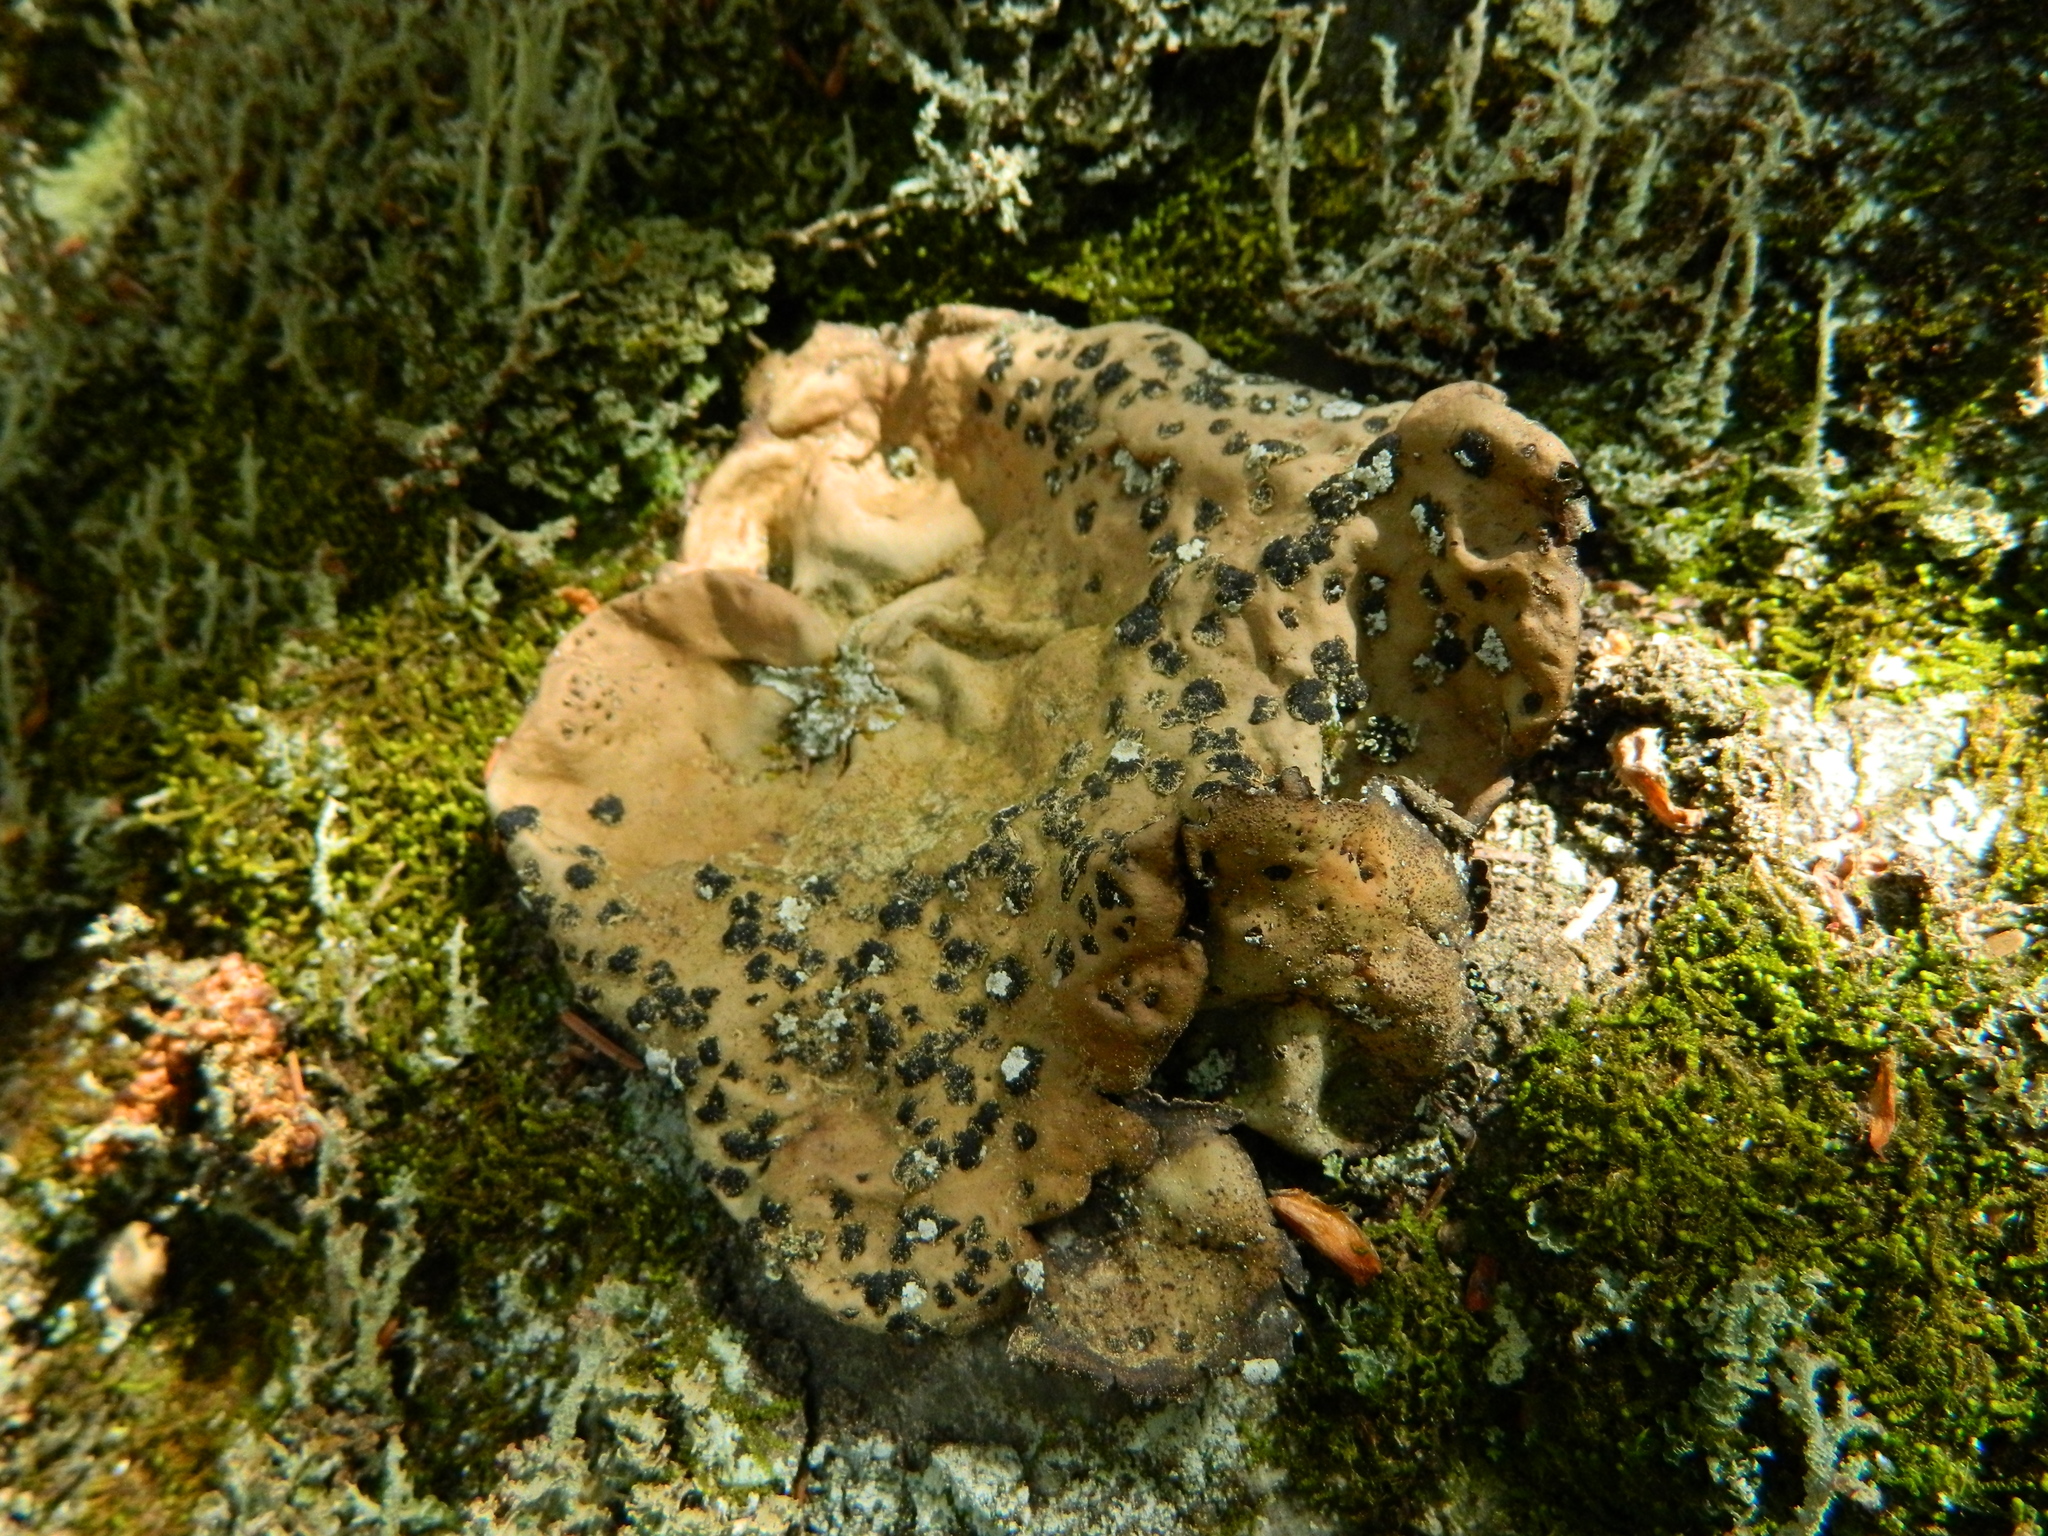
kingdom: Fungi
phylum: Ascomycota
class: Lecanoromycetes
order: Umbilicariales
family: Umbilicariaceae
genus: Umbilicaria
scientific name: Umbilicaria muhlenbergii
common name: Lesser rocktripe
